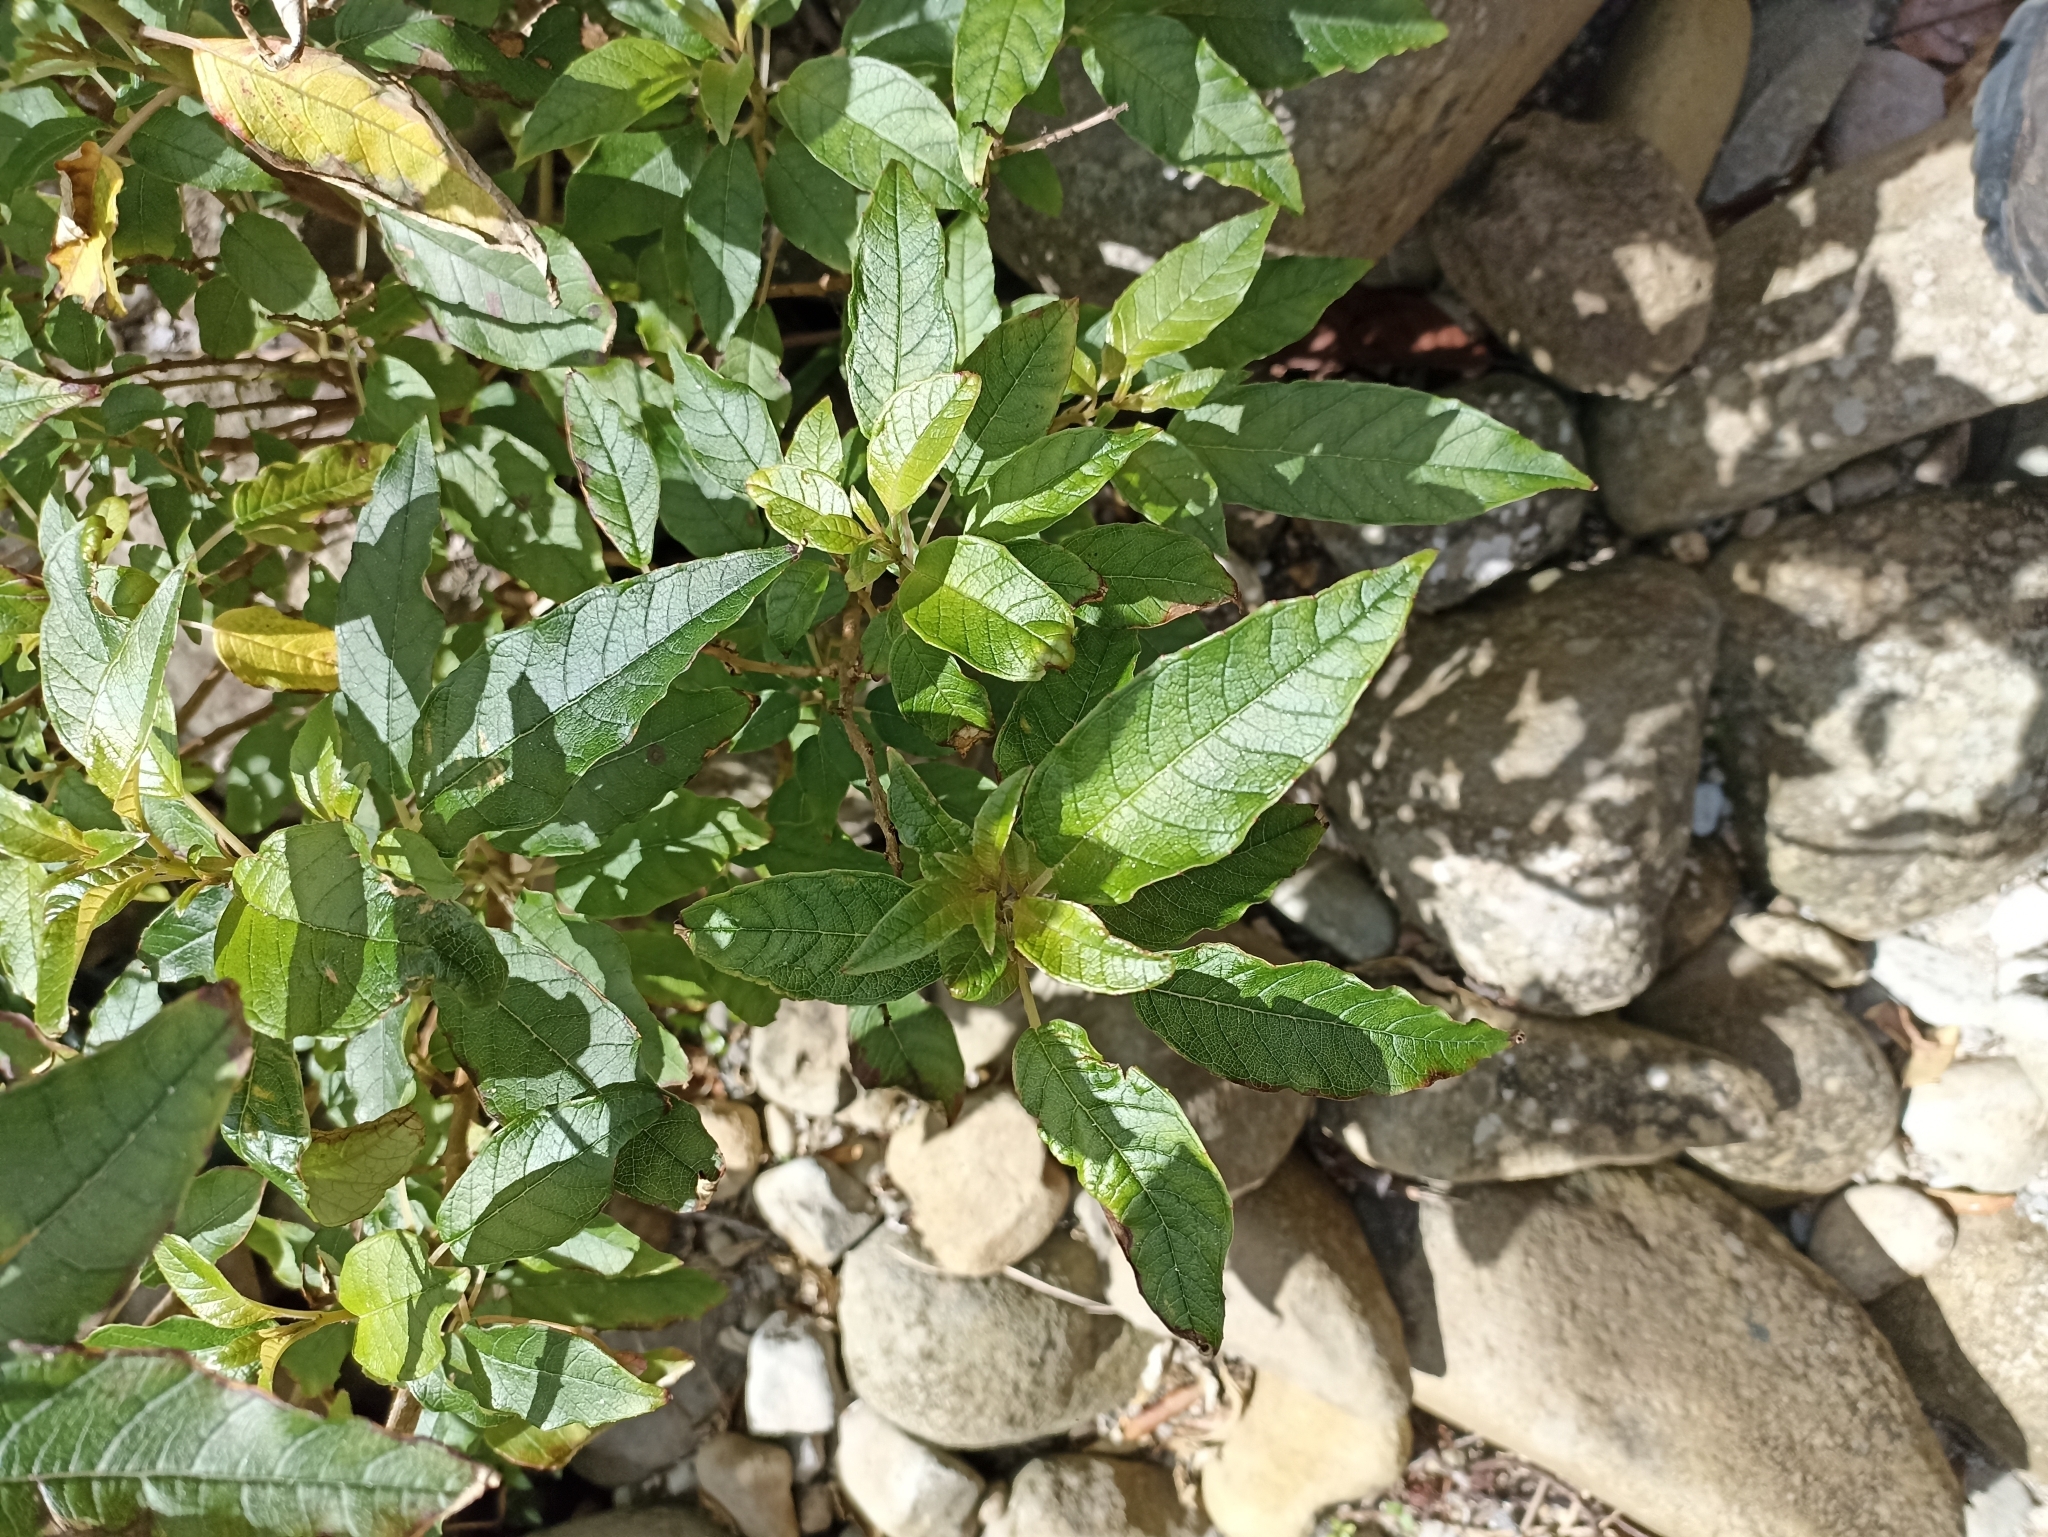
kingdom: Plantae
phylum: Tracheophyta
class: Magnoliopsida
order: Myrtales
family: Onagraceae
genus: Fuchsia
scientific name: Fuchsia excorticata
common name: Tree fuchsia
